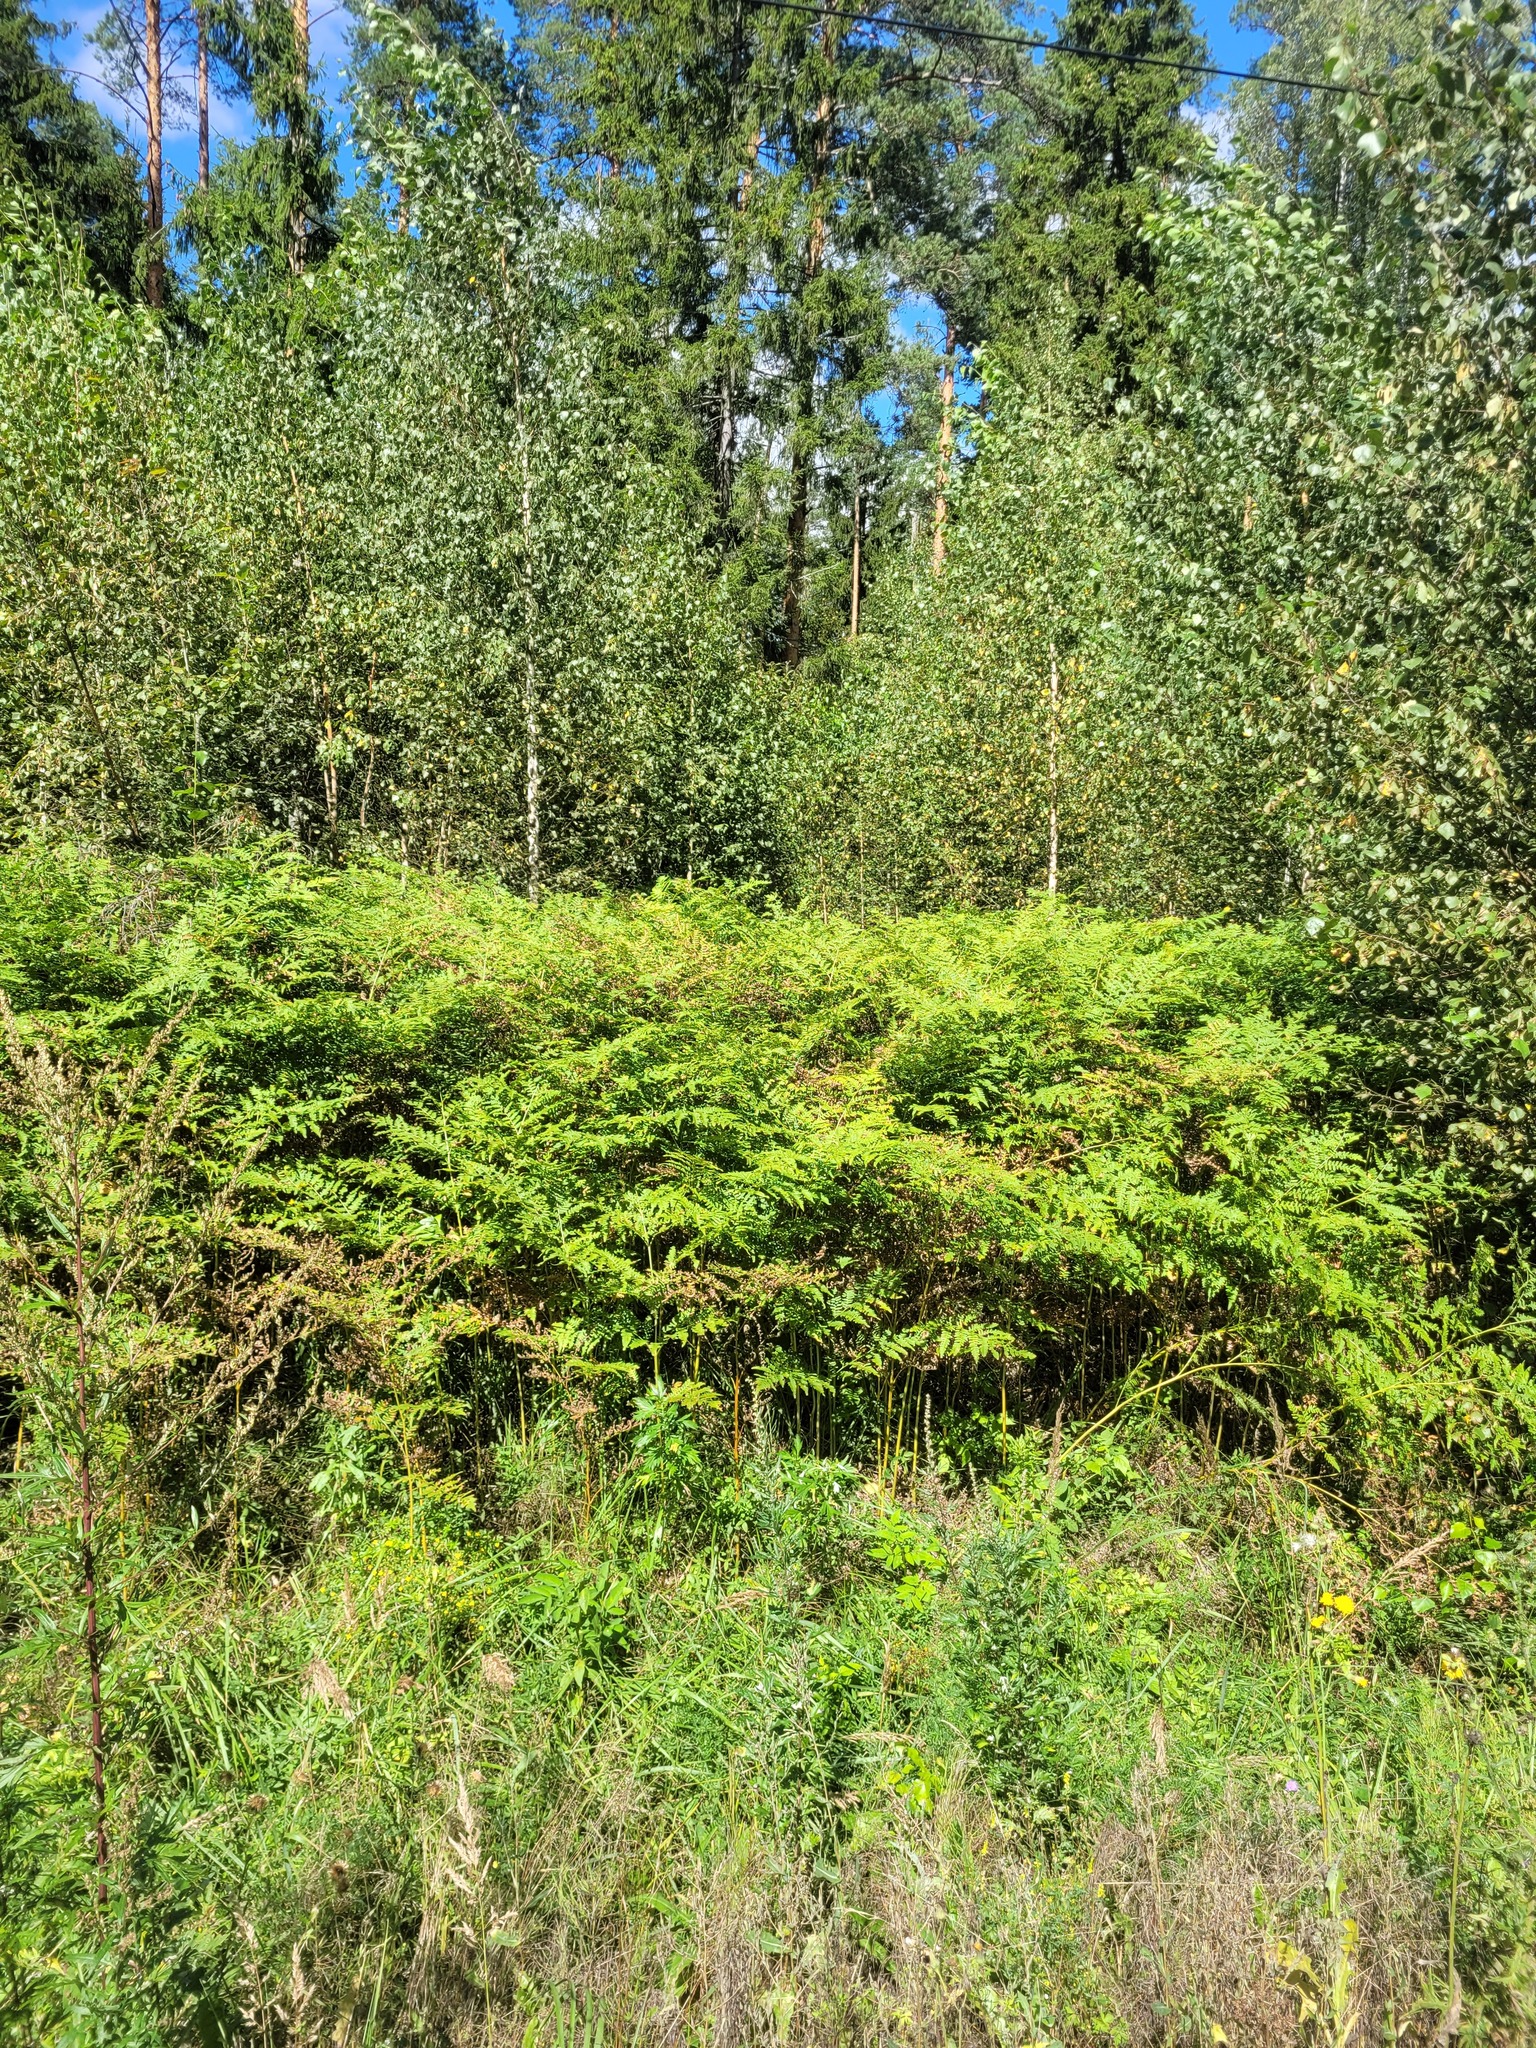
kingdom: Plantae
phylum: Tracheophyta
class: Polypodiopsida
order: Polypodiales
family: Dennstaedtiaceae
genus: Pteridium
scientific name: Pteridium aquilinum
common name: Bracken
